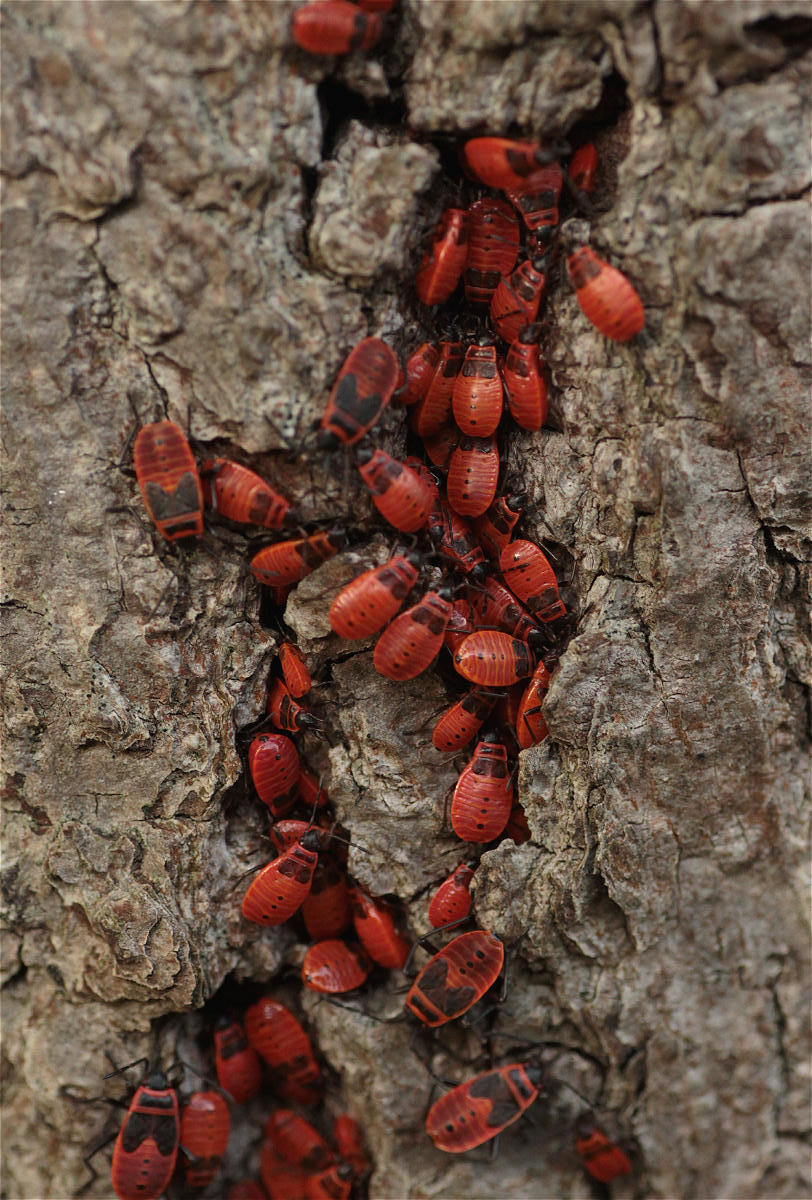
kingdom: Animalia
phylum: Arthropoda
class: Insecta
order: Hemiptera
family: Pyrrhocoridae
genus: Pyrrhocoris
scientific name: Pyrrhocoris apterus
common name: Firebug
